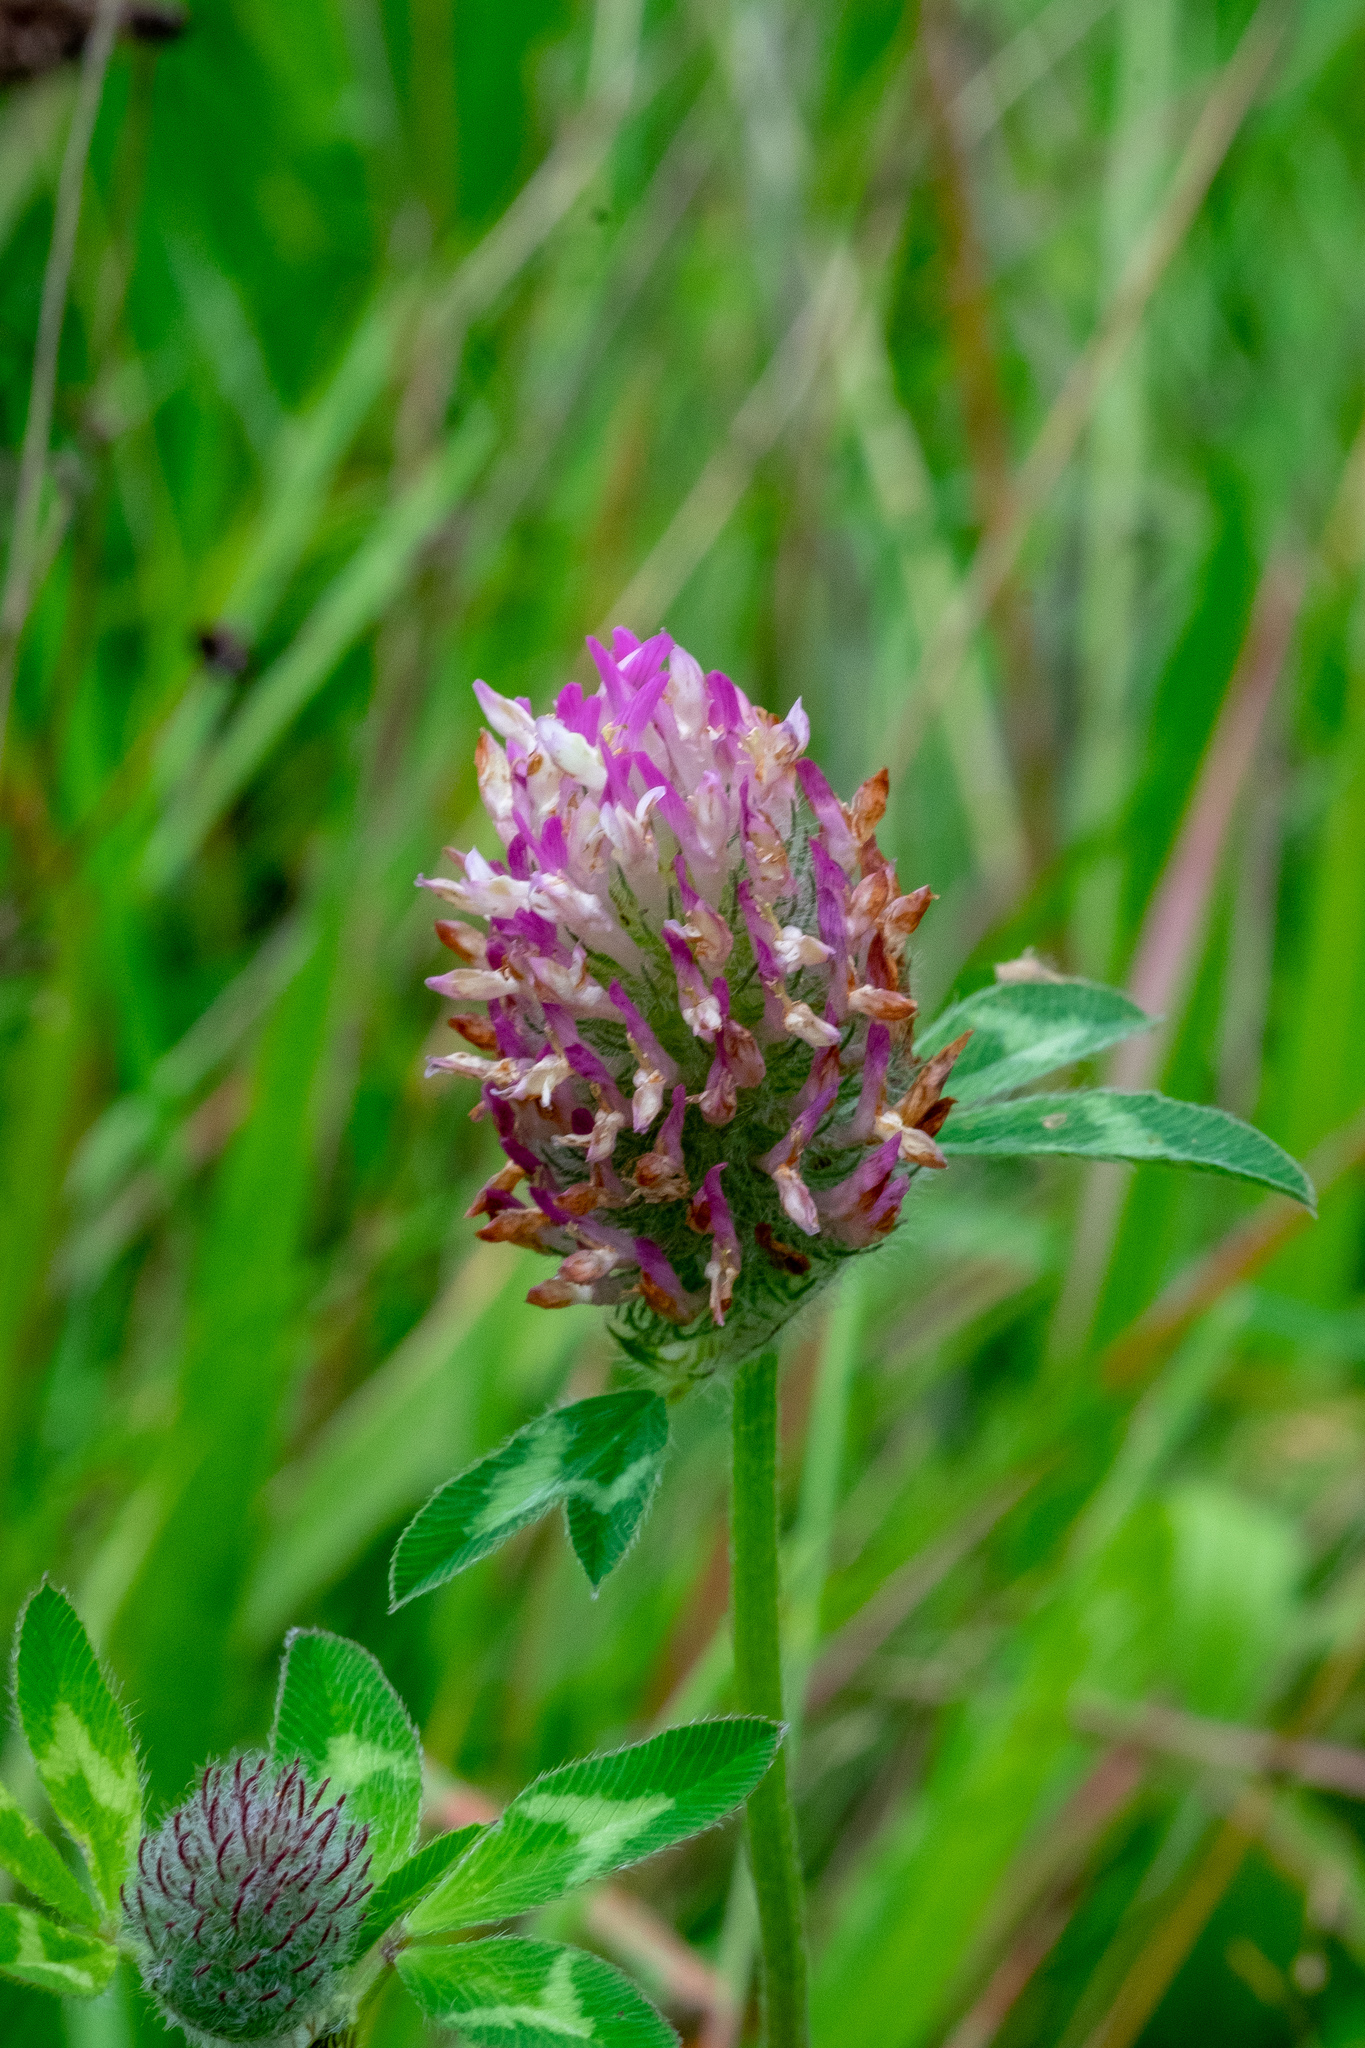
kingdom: Plantae
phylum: Tracheophyta
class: Magnoliopsida
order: Fabales
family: Fabaceae
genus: Trifolium
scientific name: Trifolium pratense
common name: Red clover
